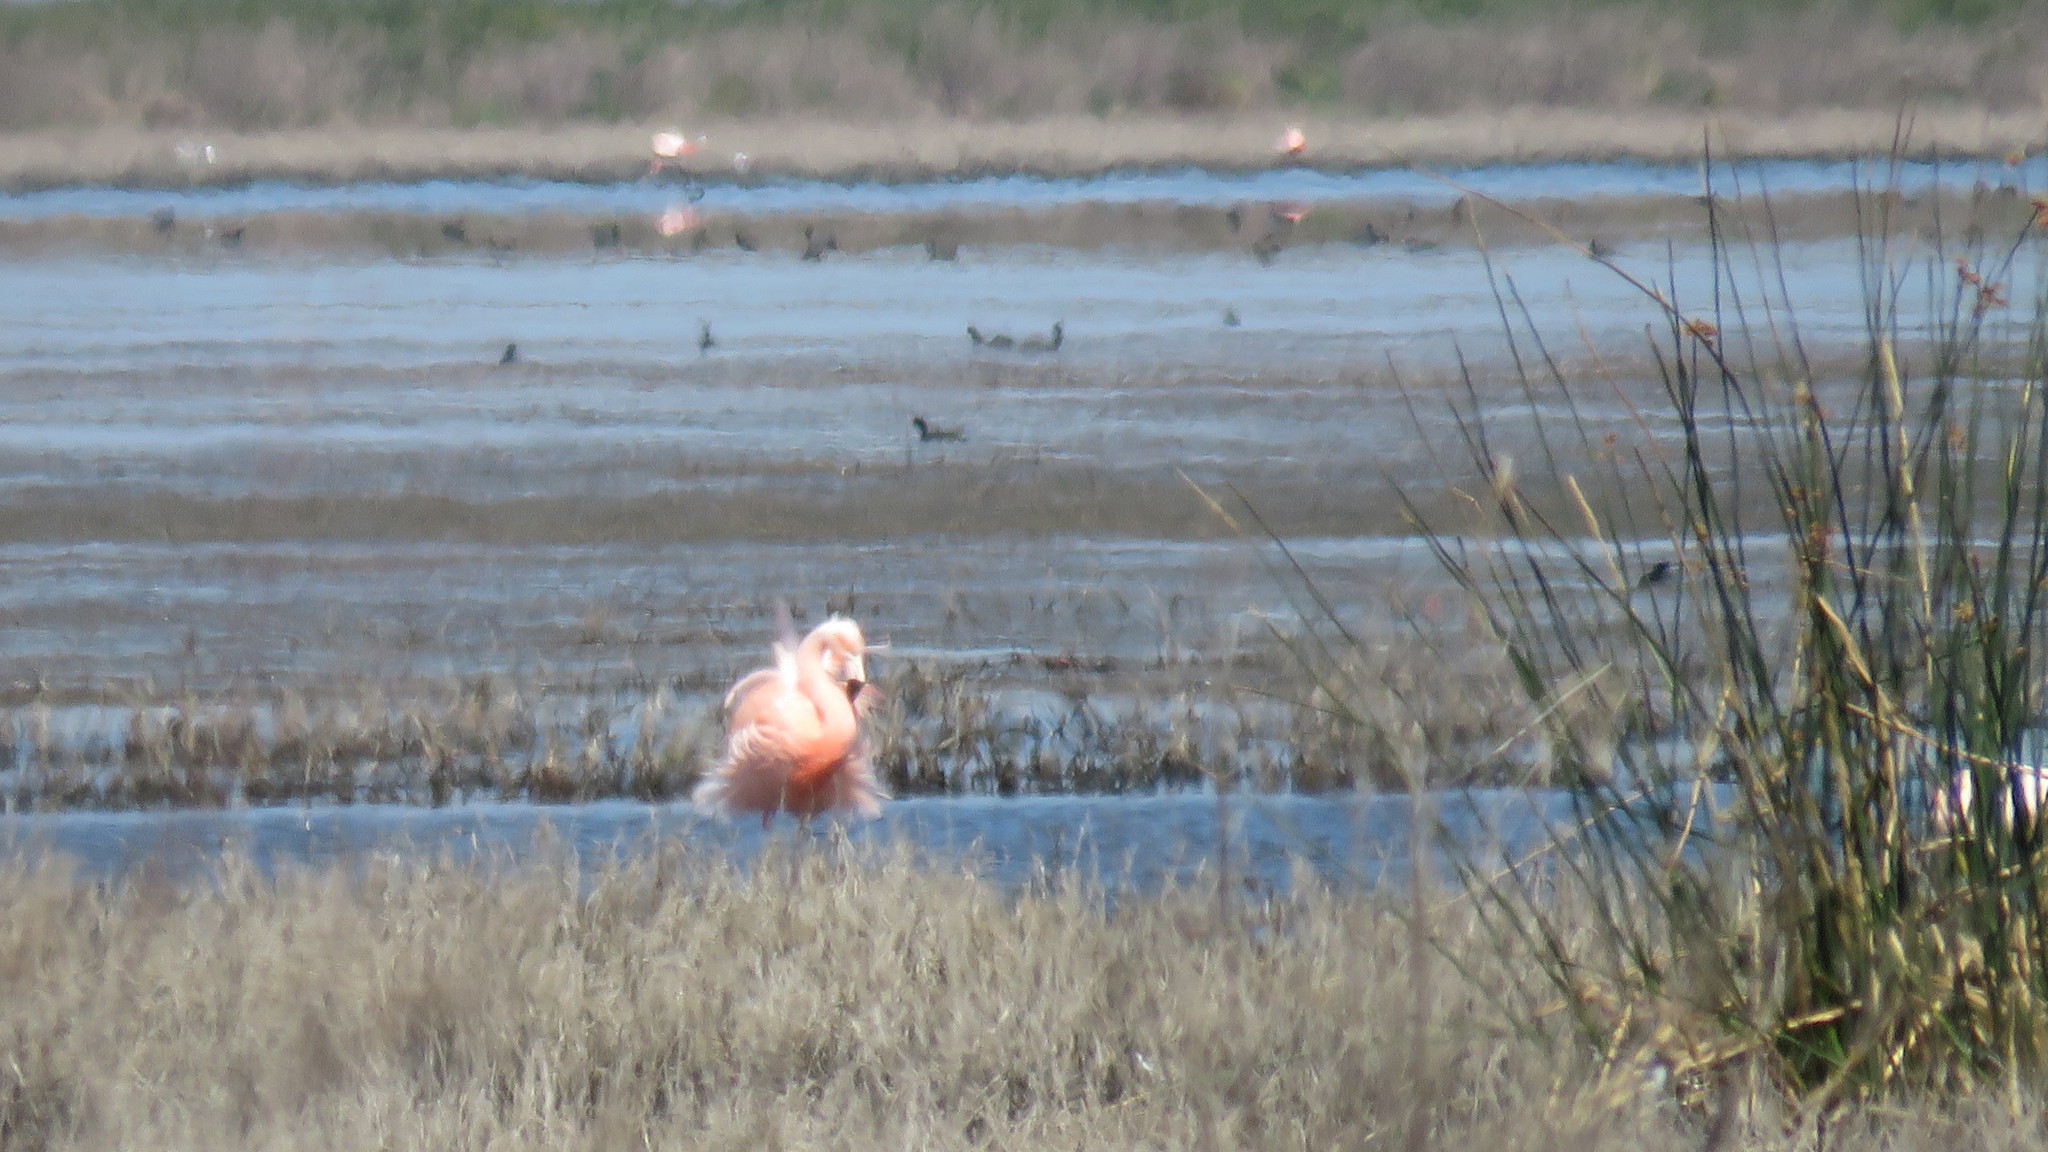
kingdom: Animalia
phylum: Chordata
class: Aves
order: Phoenicopteriformes
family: Phoenicopteridae
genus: Phoenicopterus
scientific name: Phoenicopterus chilensis
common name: Chilean flamingo
